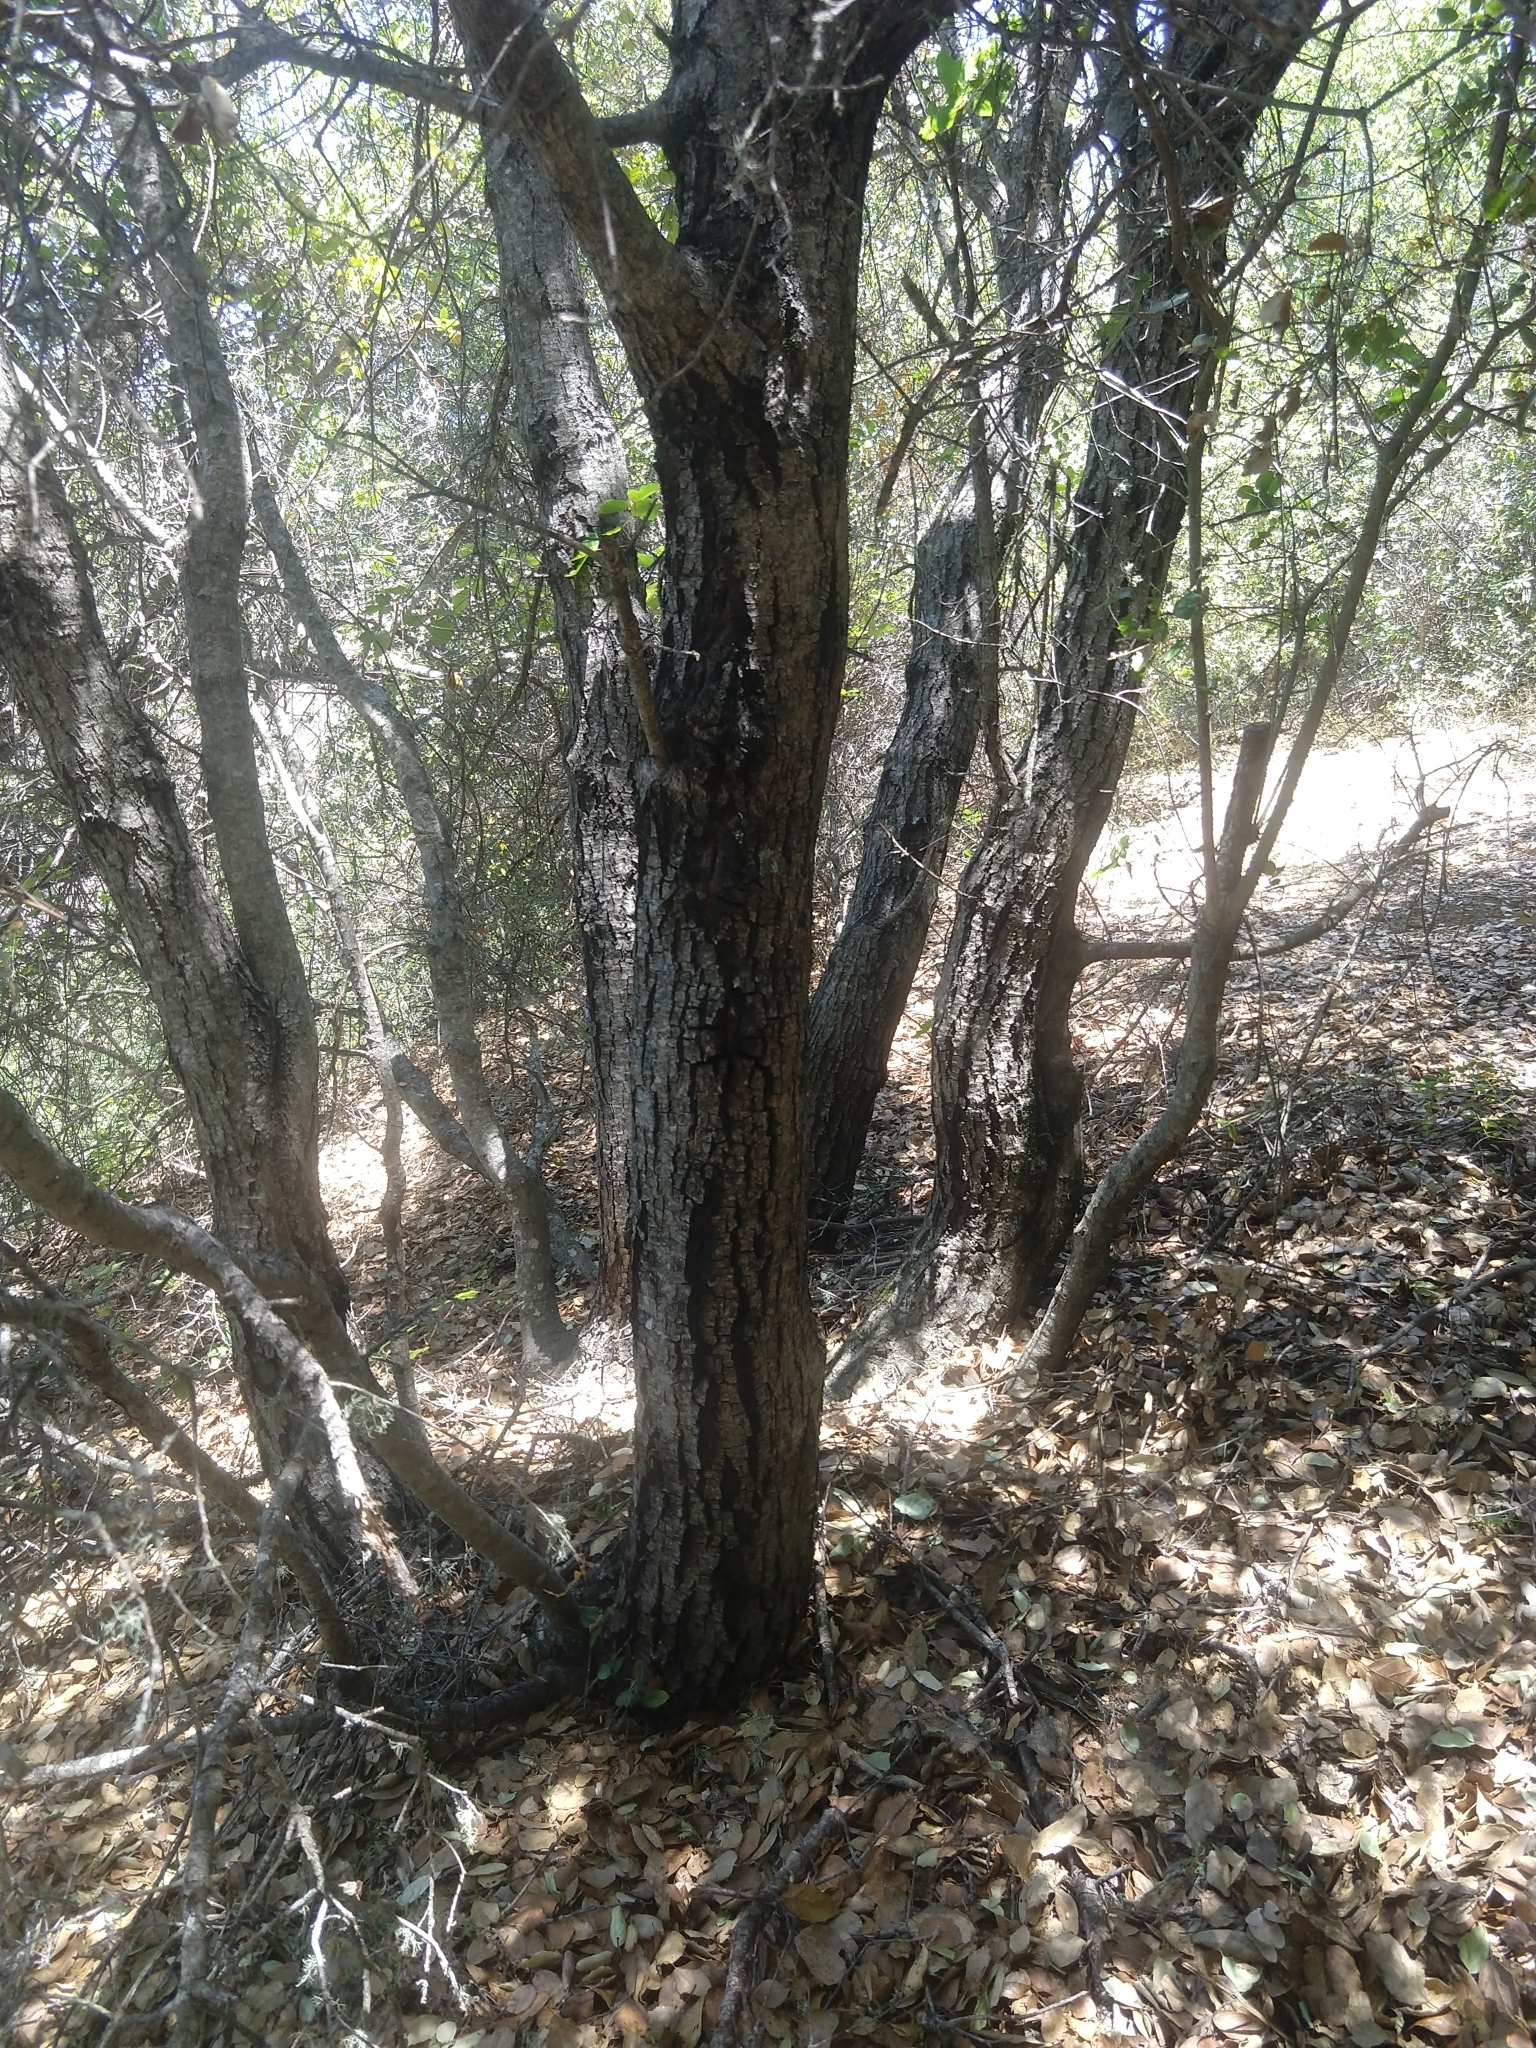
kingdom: Plantae
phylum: Tracheophyta
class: Magnoliopsida
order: Fagales
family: Fagaceae
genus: Quercus
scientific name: Quercus chrysolepis
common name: Canyon live oak
